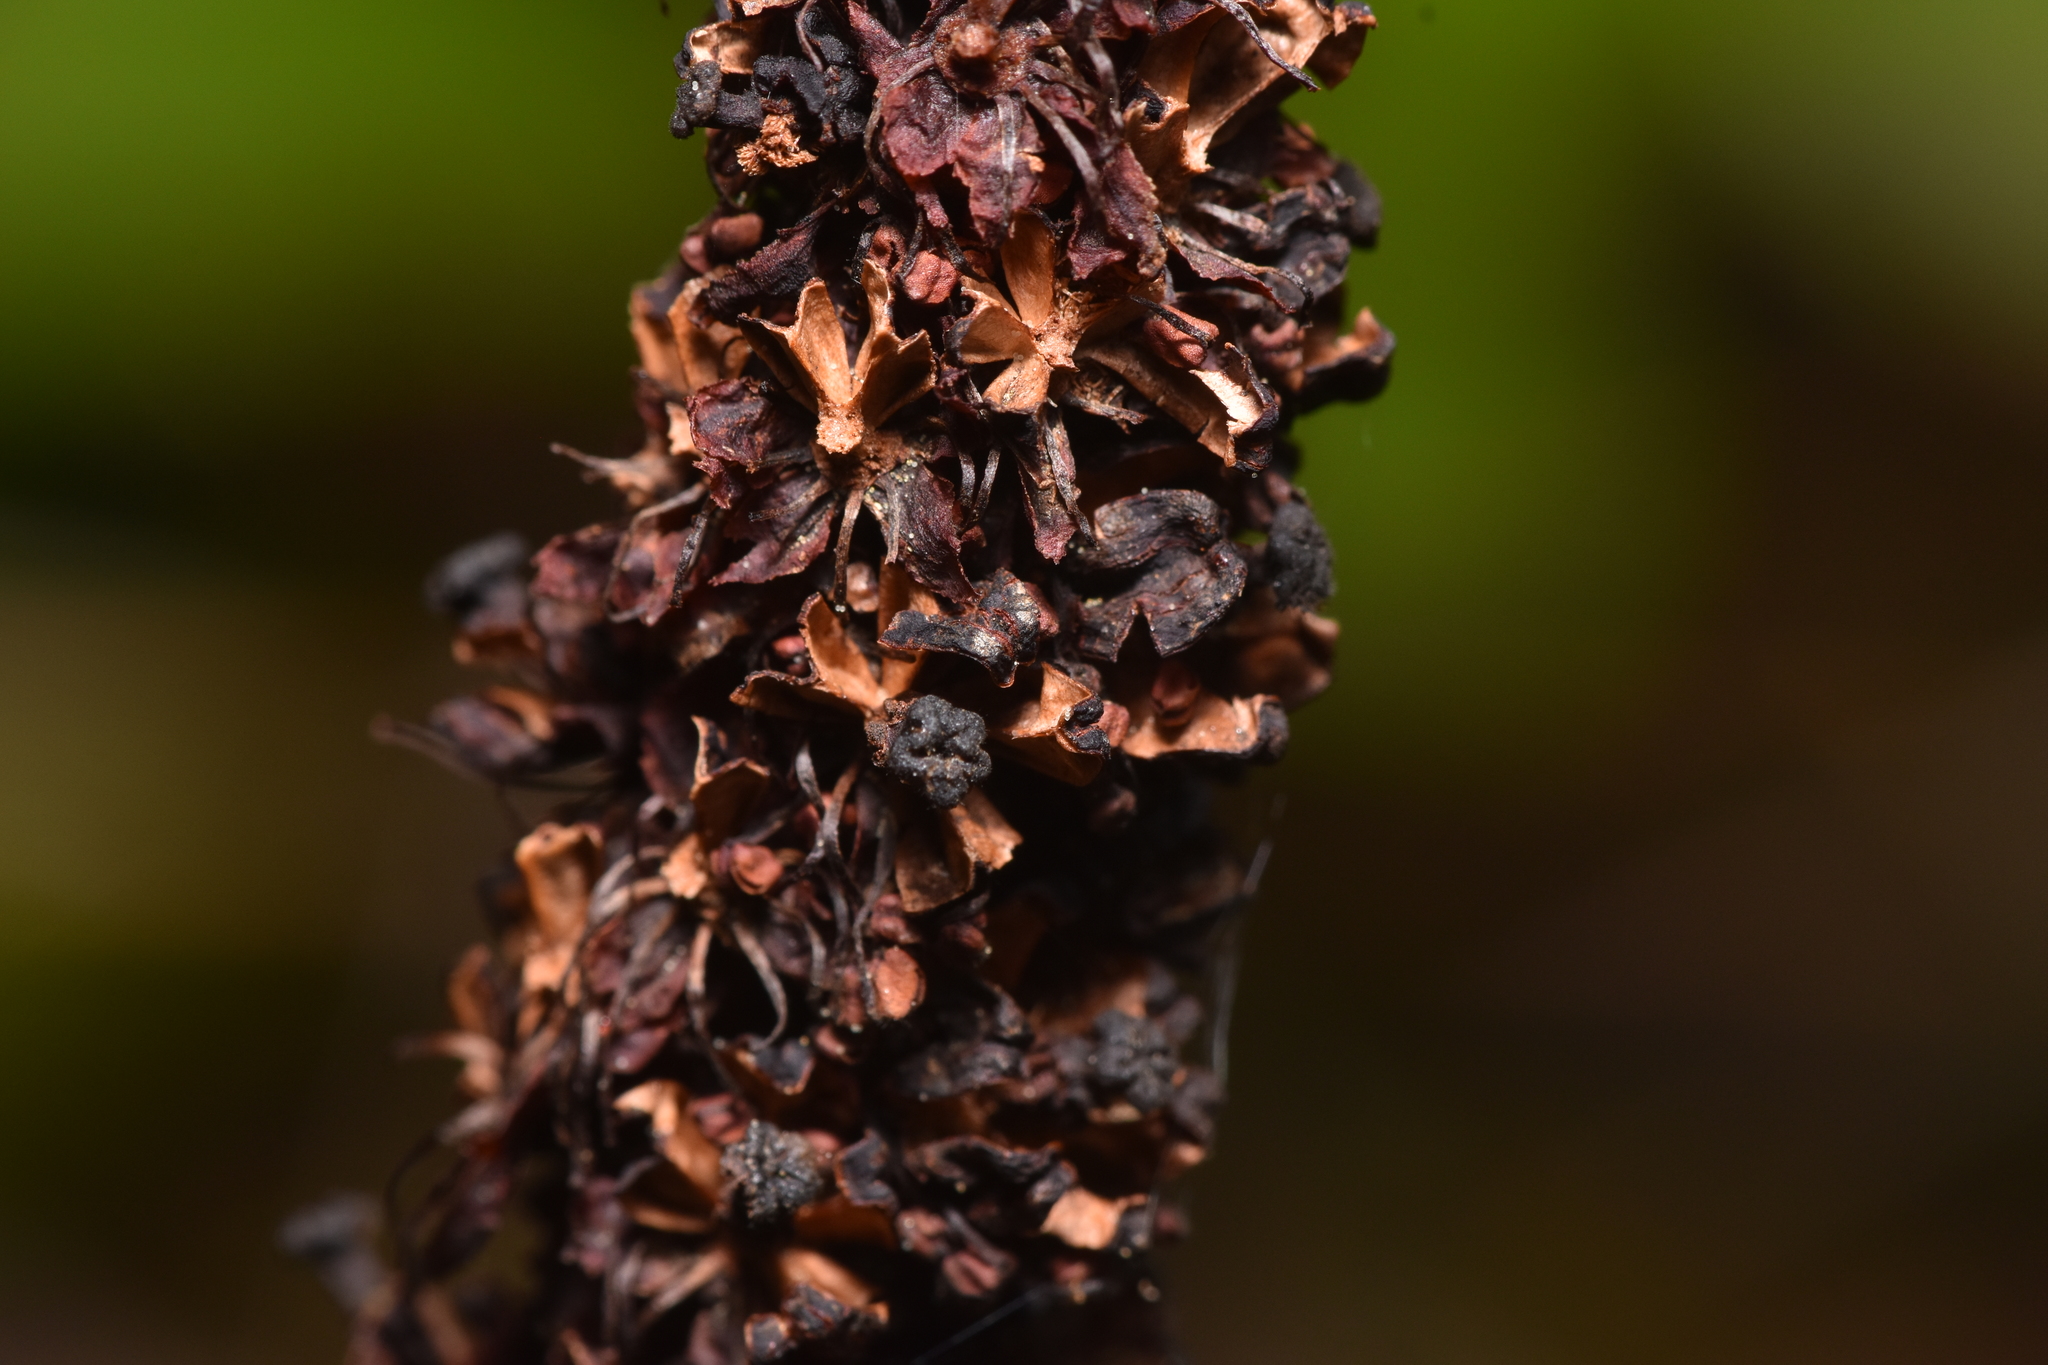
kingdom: Plantae
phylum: Tracheophyta
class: Magnoliopsida
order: Ericales
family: Ericaceae
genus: Allotropa
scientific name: Allotropa virgata
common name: Candy-striped allotropa
